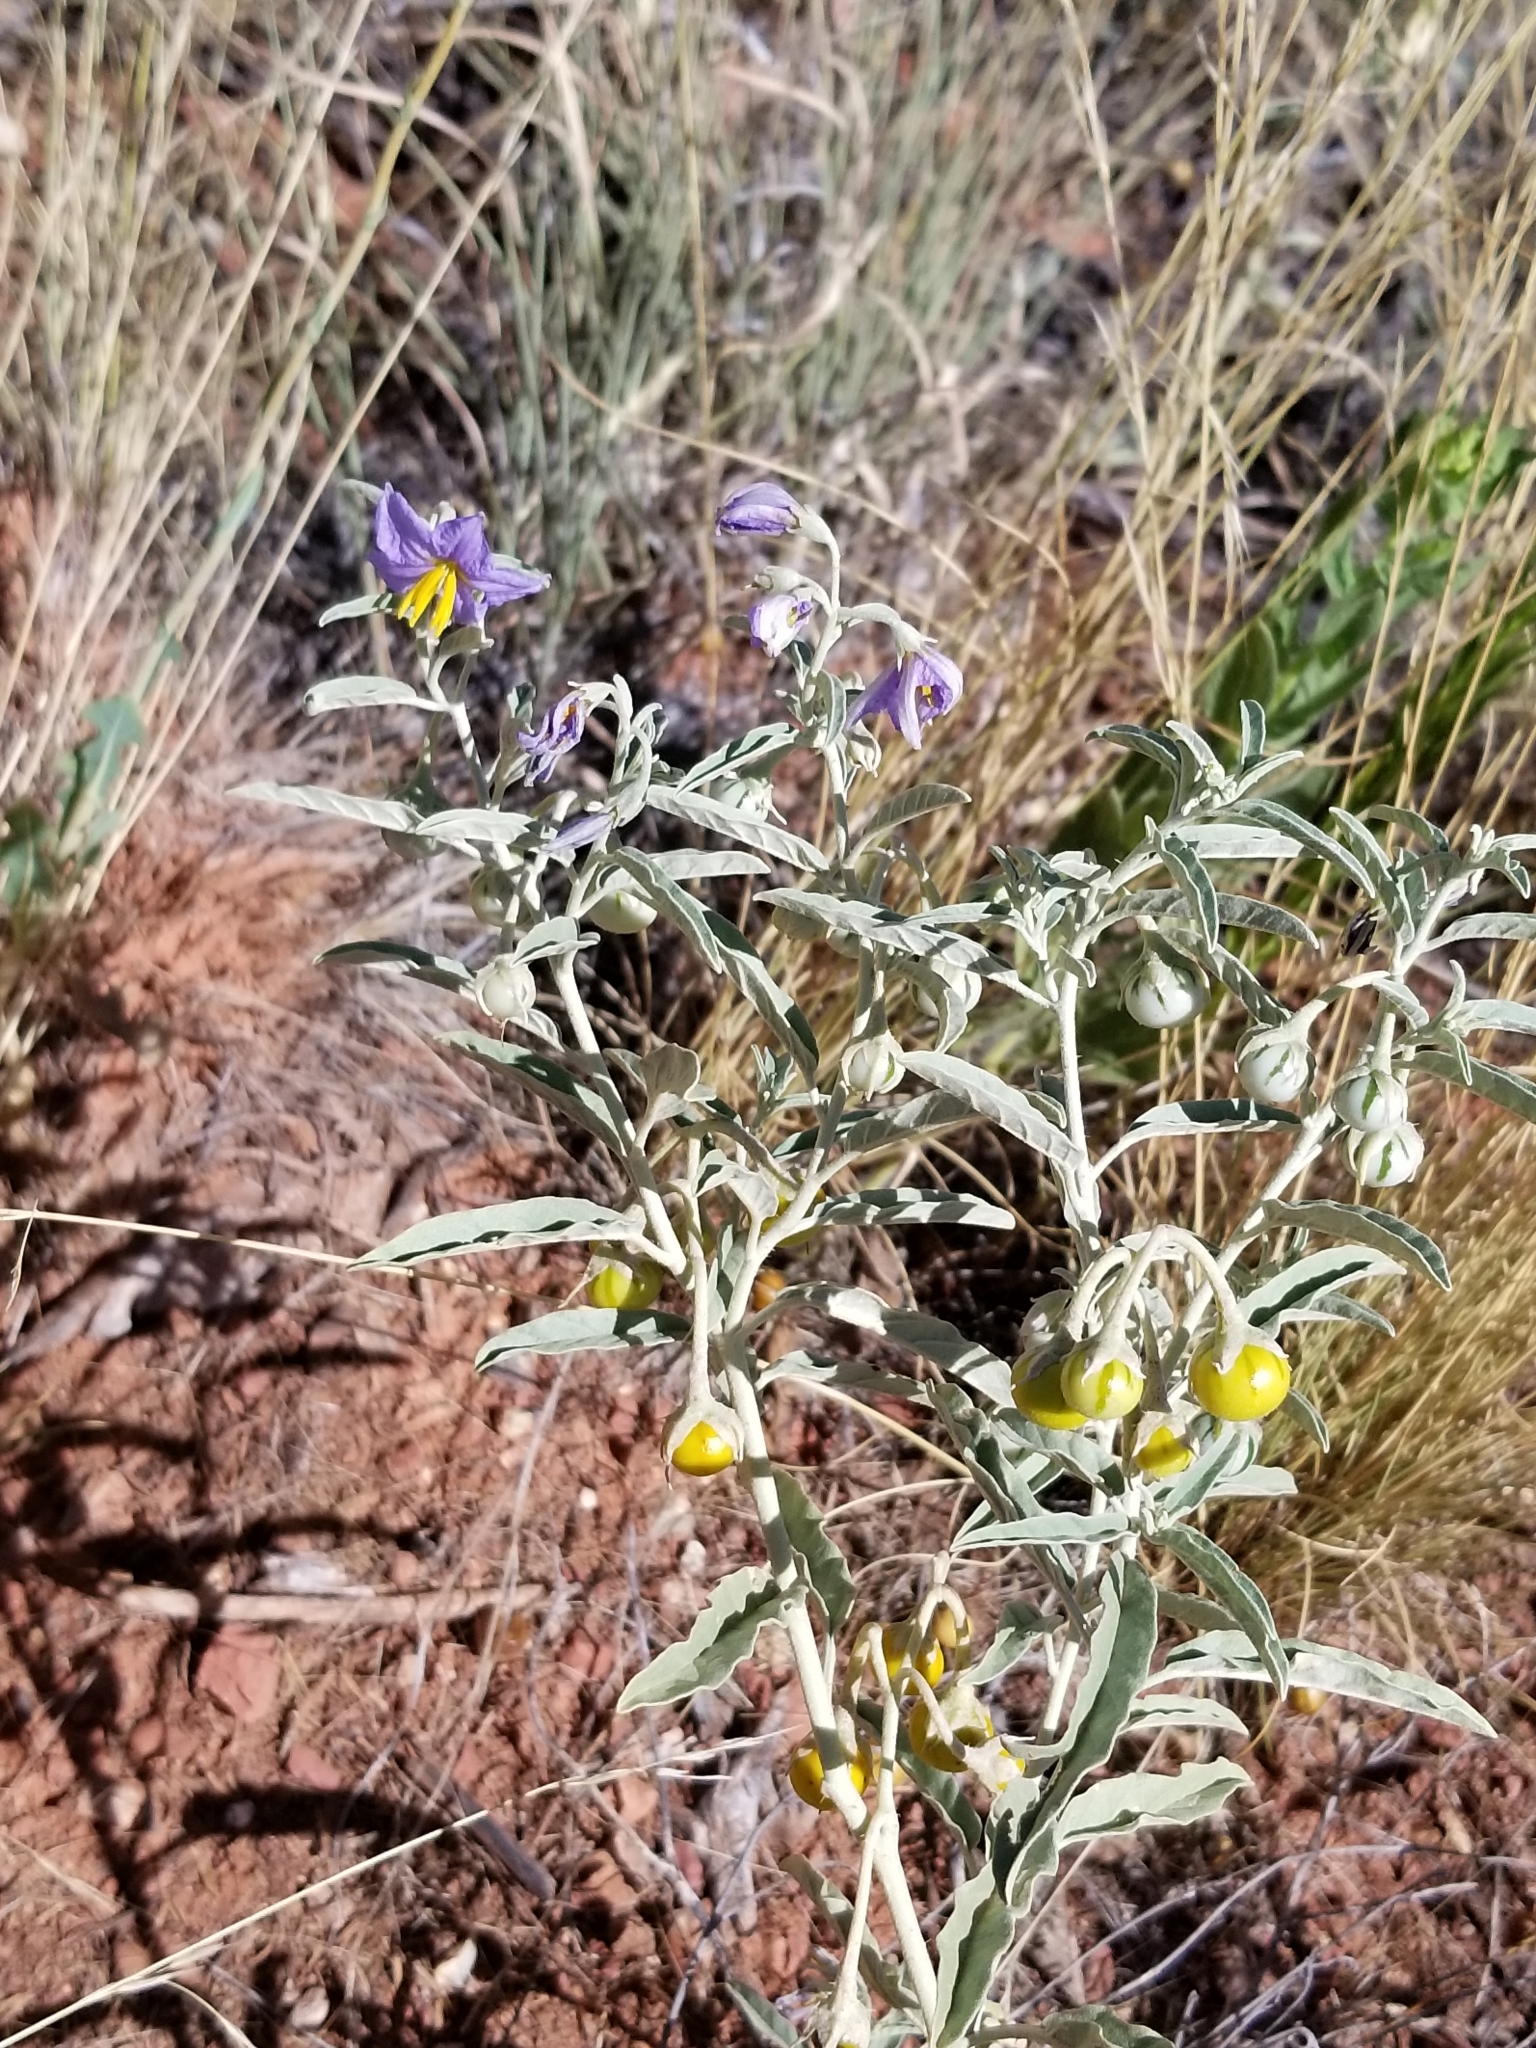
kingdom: Plantae
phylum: Tracheophyta
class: Magnoliopsida
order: Solanales
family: Solanaceae
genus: Solanum
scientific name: Solanum elaeagnifolium
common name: Silverleaf nightshade
